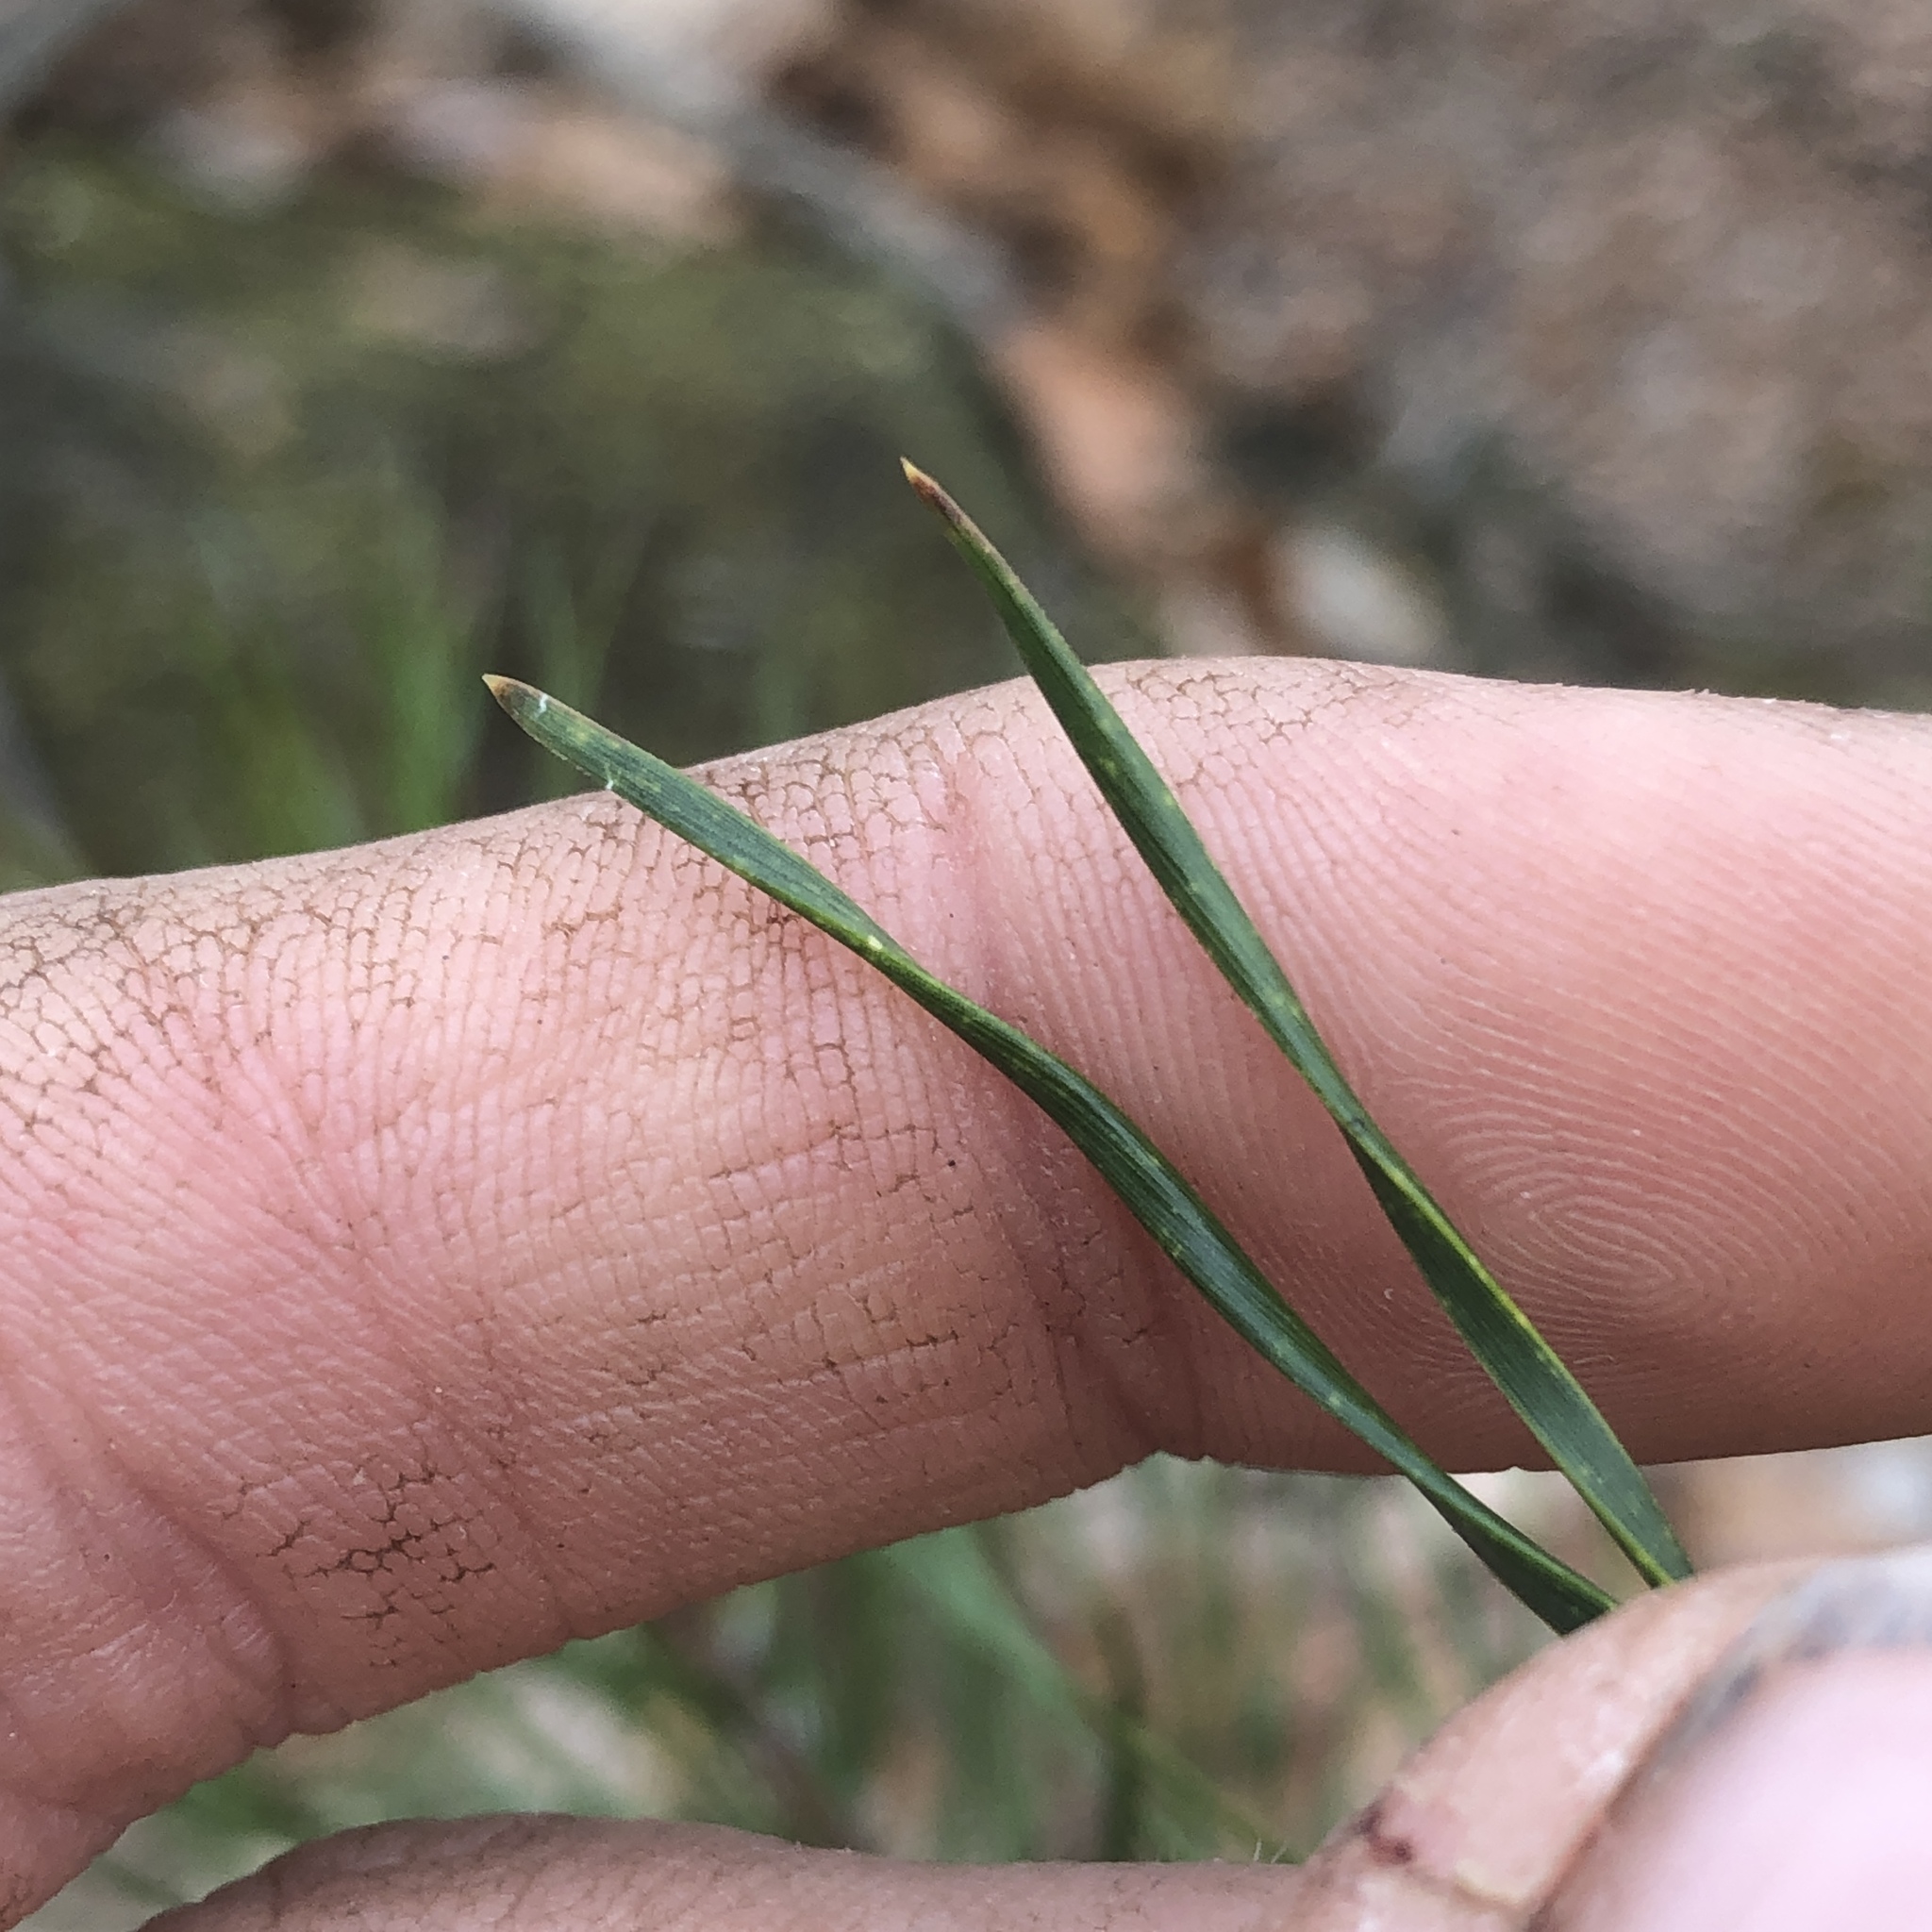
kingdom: Plantae
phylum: Tracheophyta
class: Pinopsida
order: Pinales
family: Pinaceae
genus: Pinus
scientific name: Pinus virginiana
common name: Scrub pine
